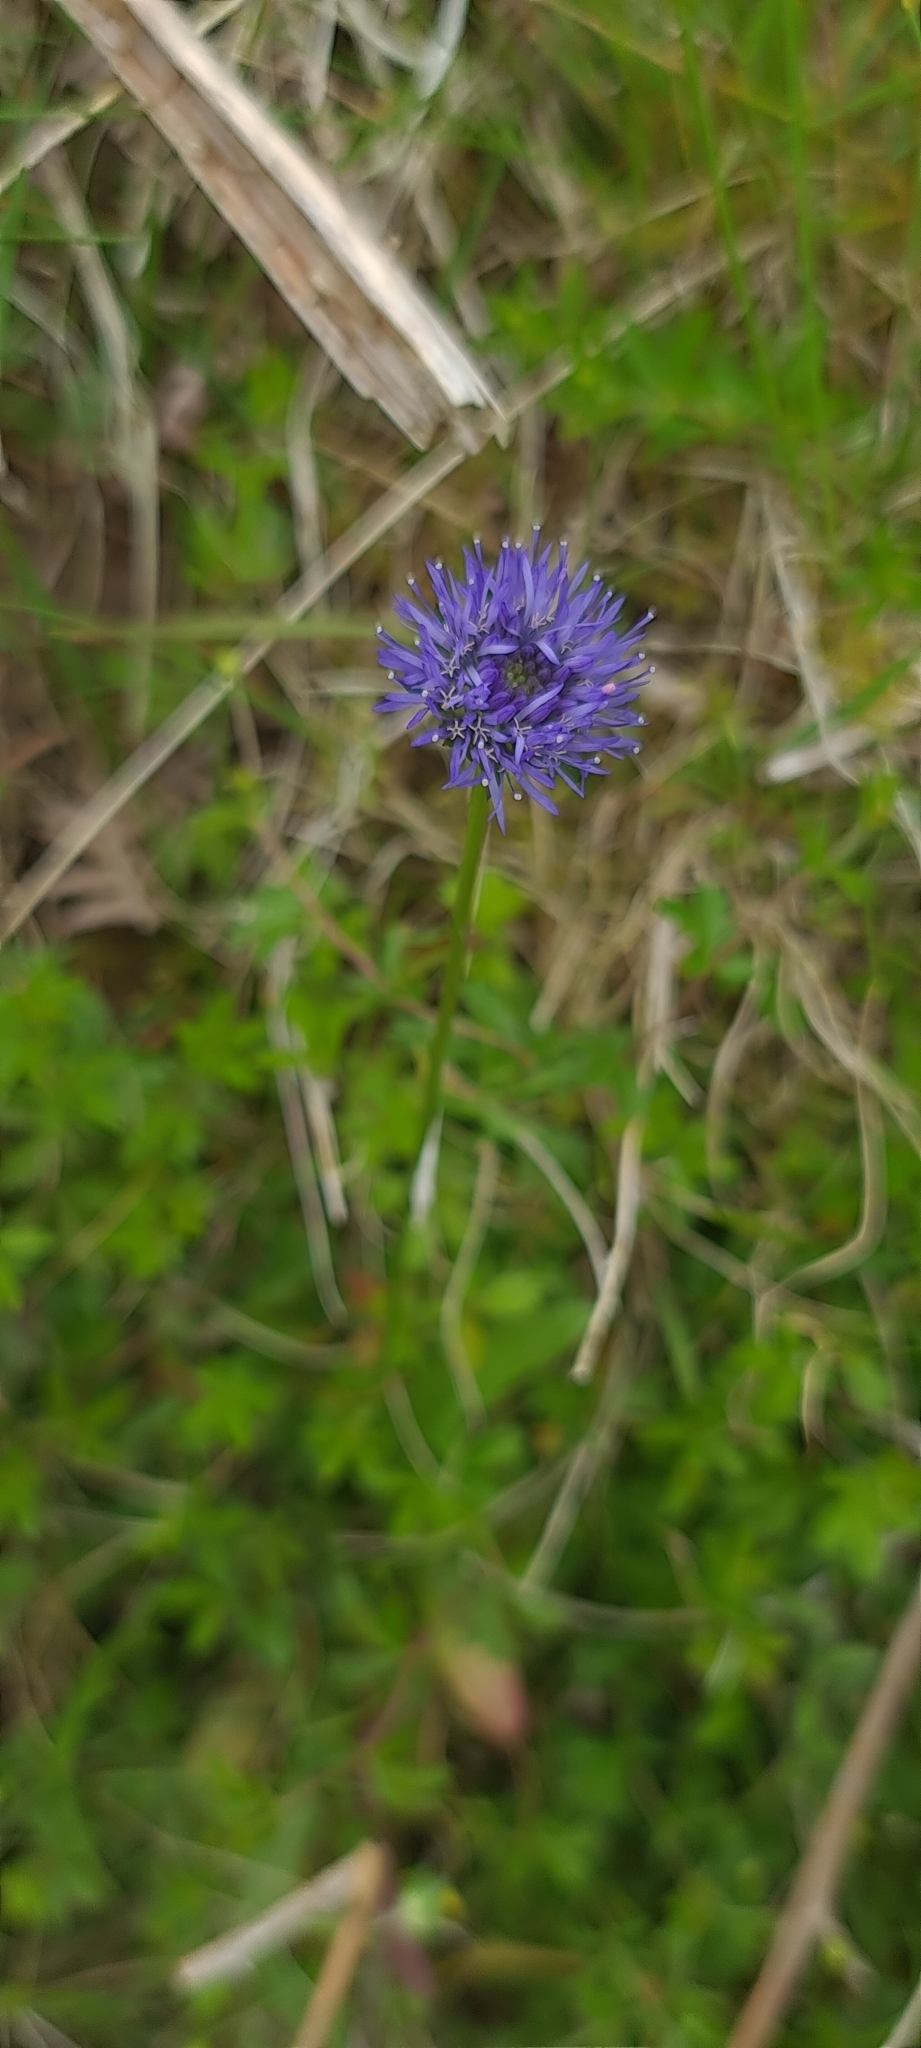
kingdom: Plantae
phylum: Tracheophyta
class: Magnoliopsida
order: Asterales
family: Campanulaceae
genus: Jasione
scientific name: Jasione montana
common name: Sheep's-bit
